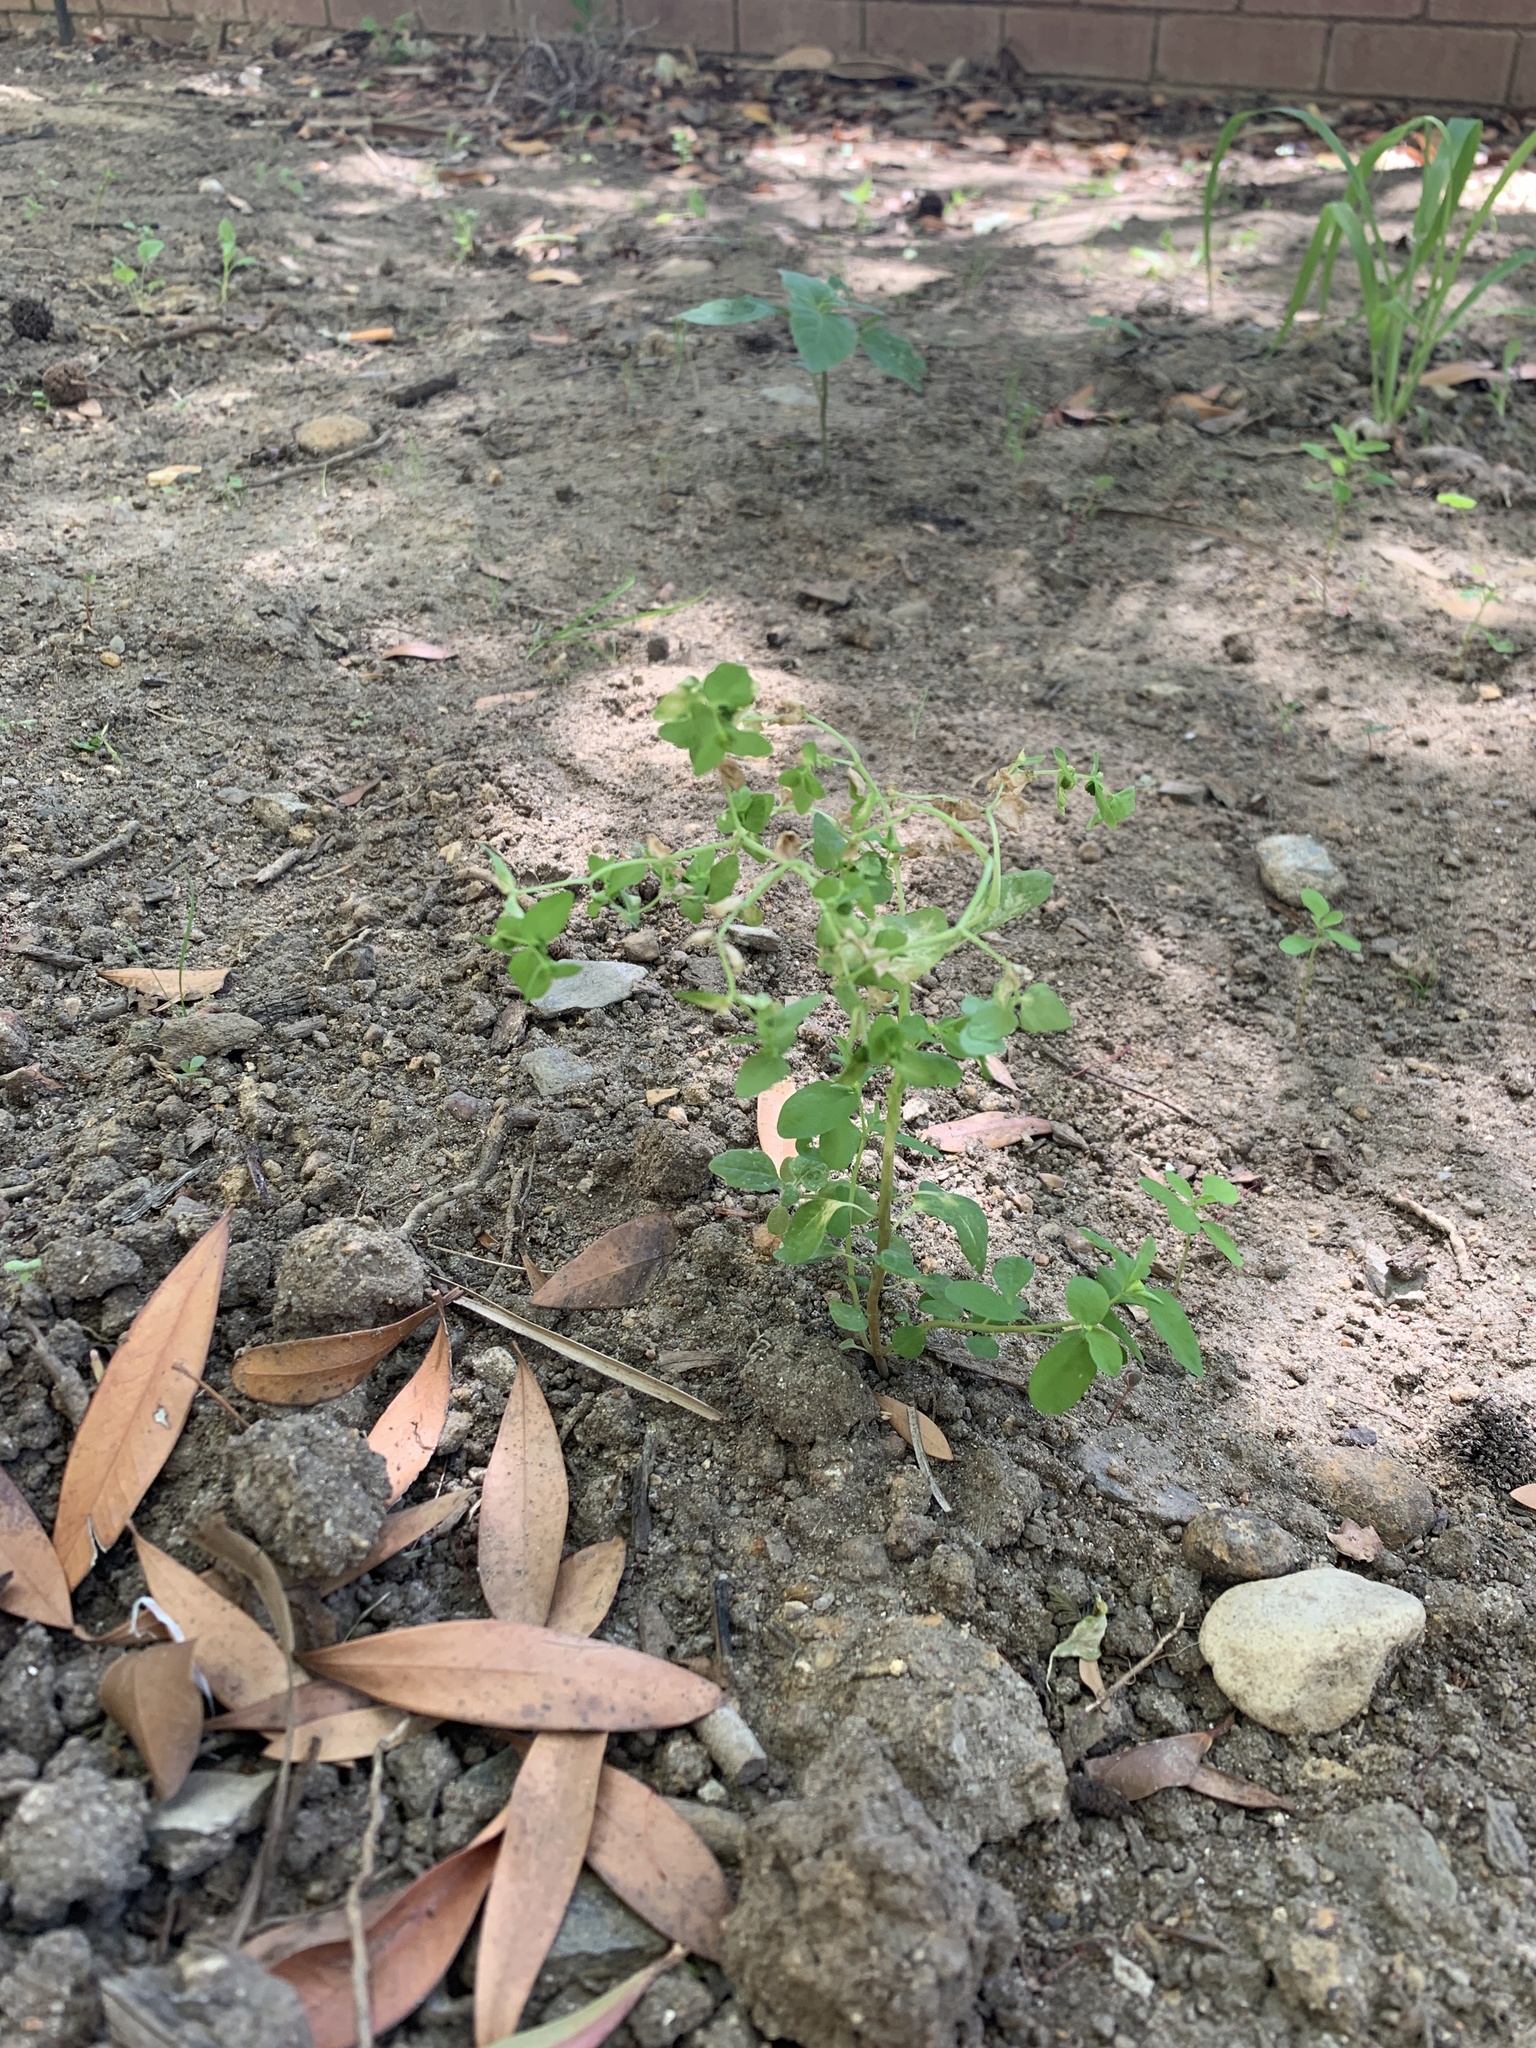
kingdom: Plantae
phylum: Tracheophyta
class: Magnoliopsida
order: Malpighiales
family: Euphorbiaceae
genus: Euphorbia
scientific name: Euphorbia peplus
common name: Petty spurge
